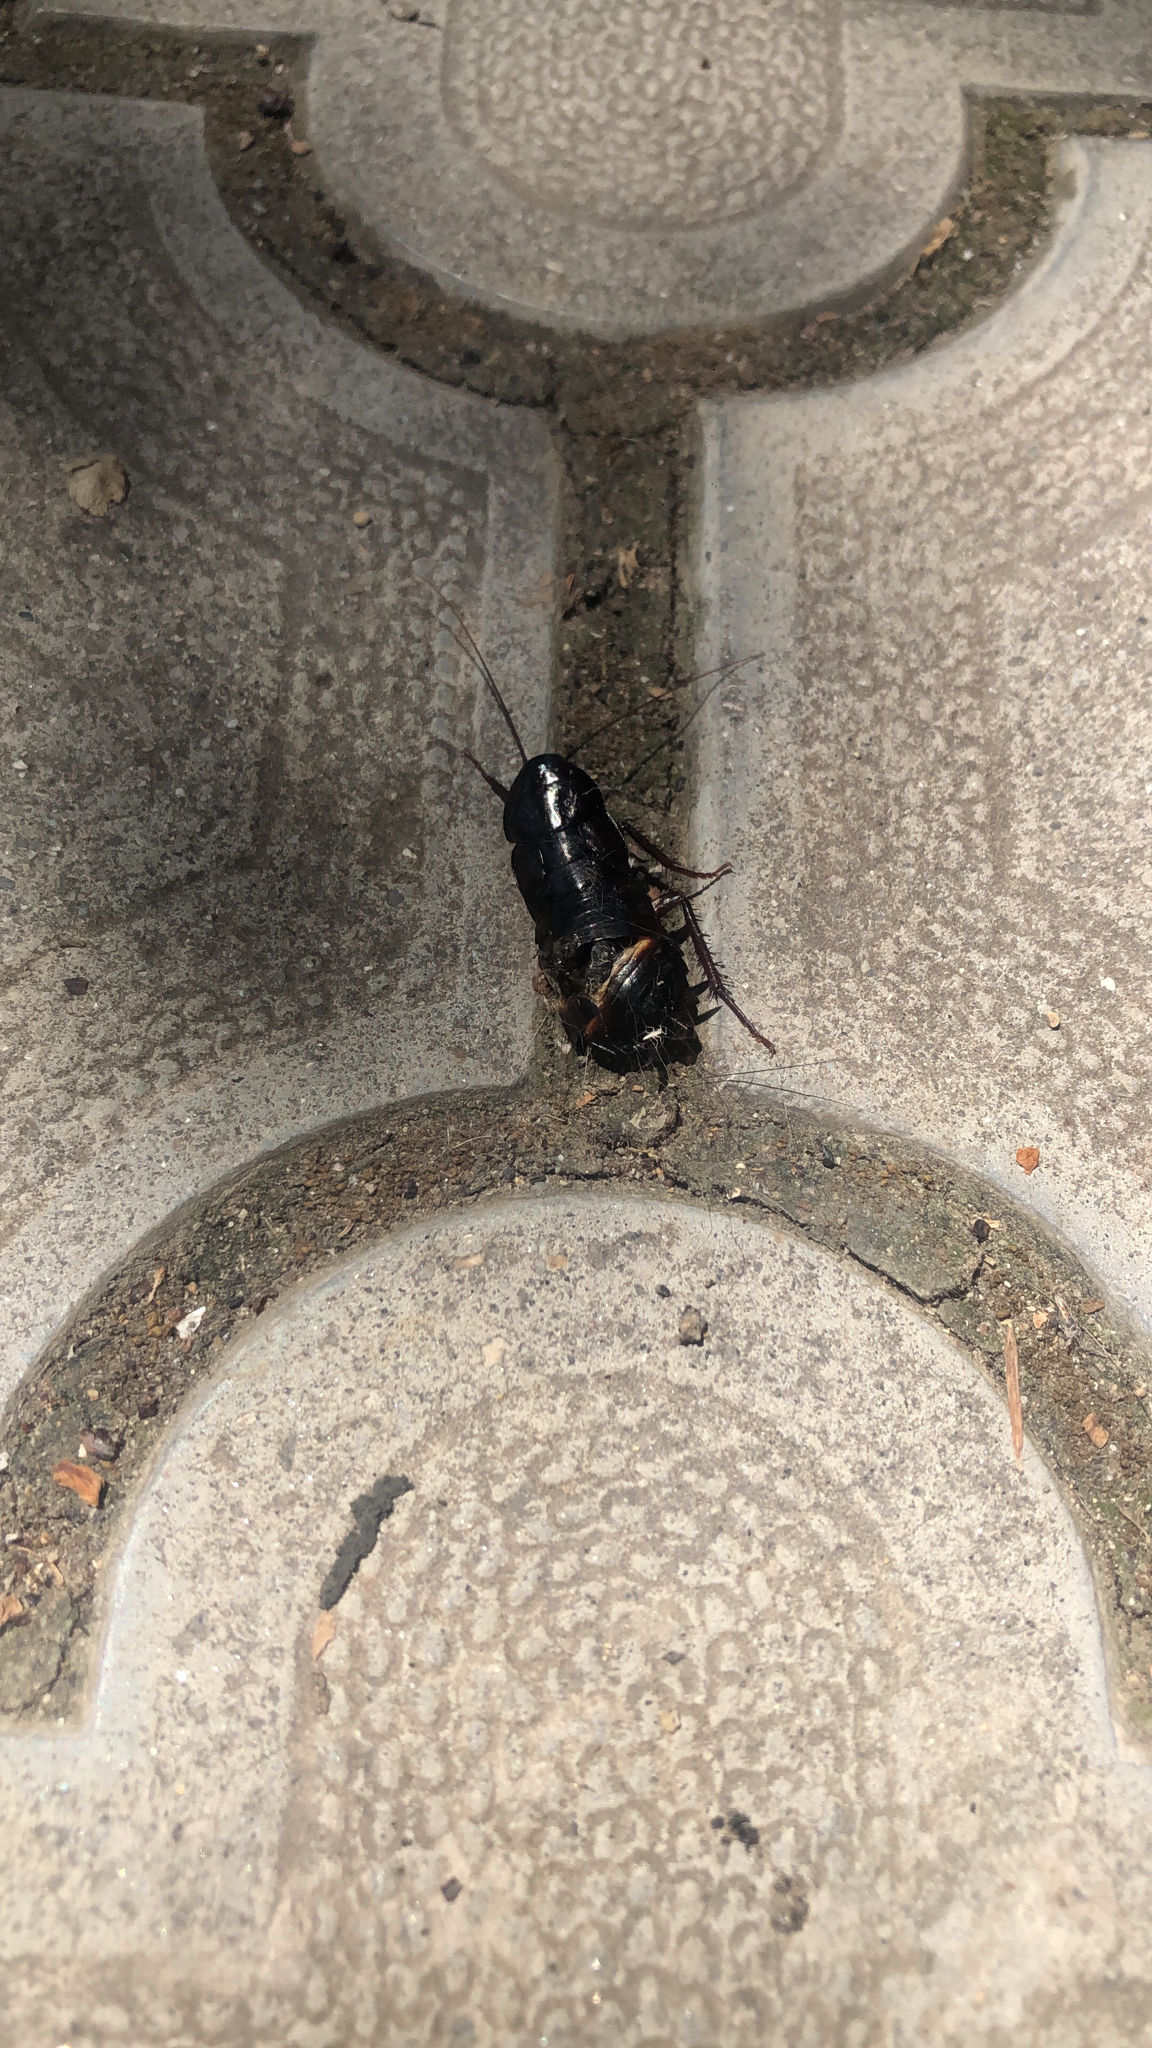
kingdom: Animalia
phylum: Arthropoda
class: Insecta
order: Blattodea
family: Blattidae
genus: Blatta
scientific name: Blatta orientalis
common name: Oriental cockroach
